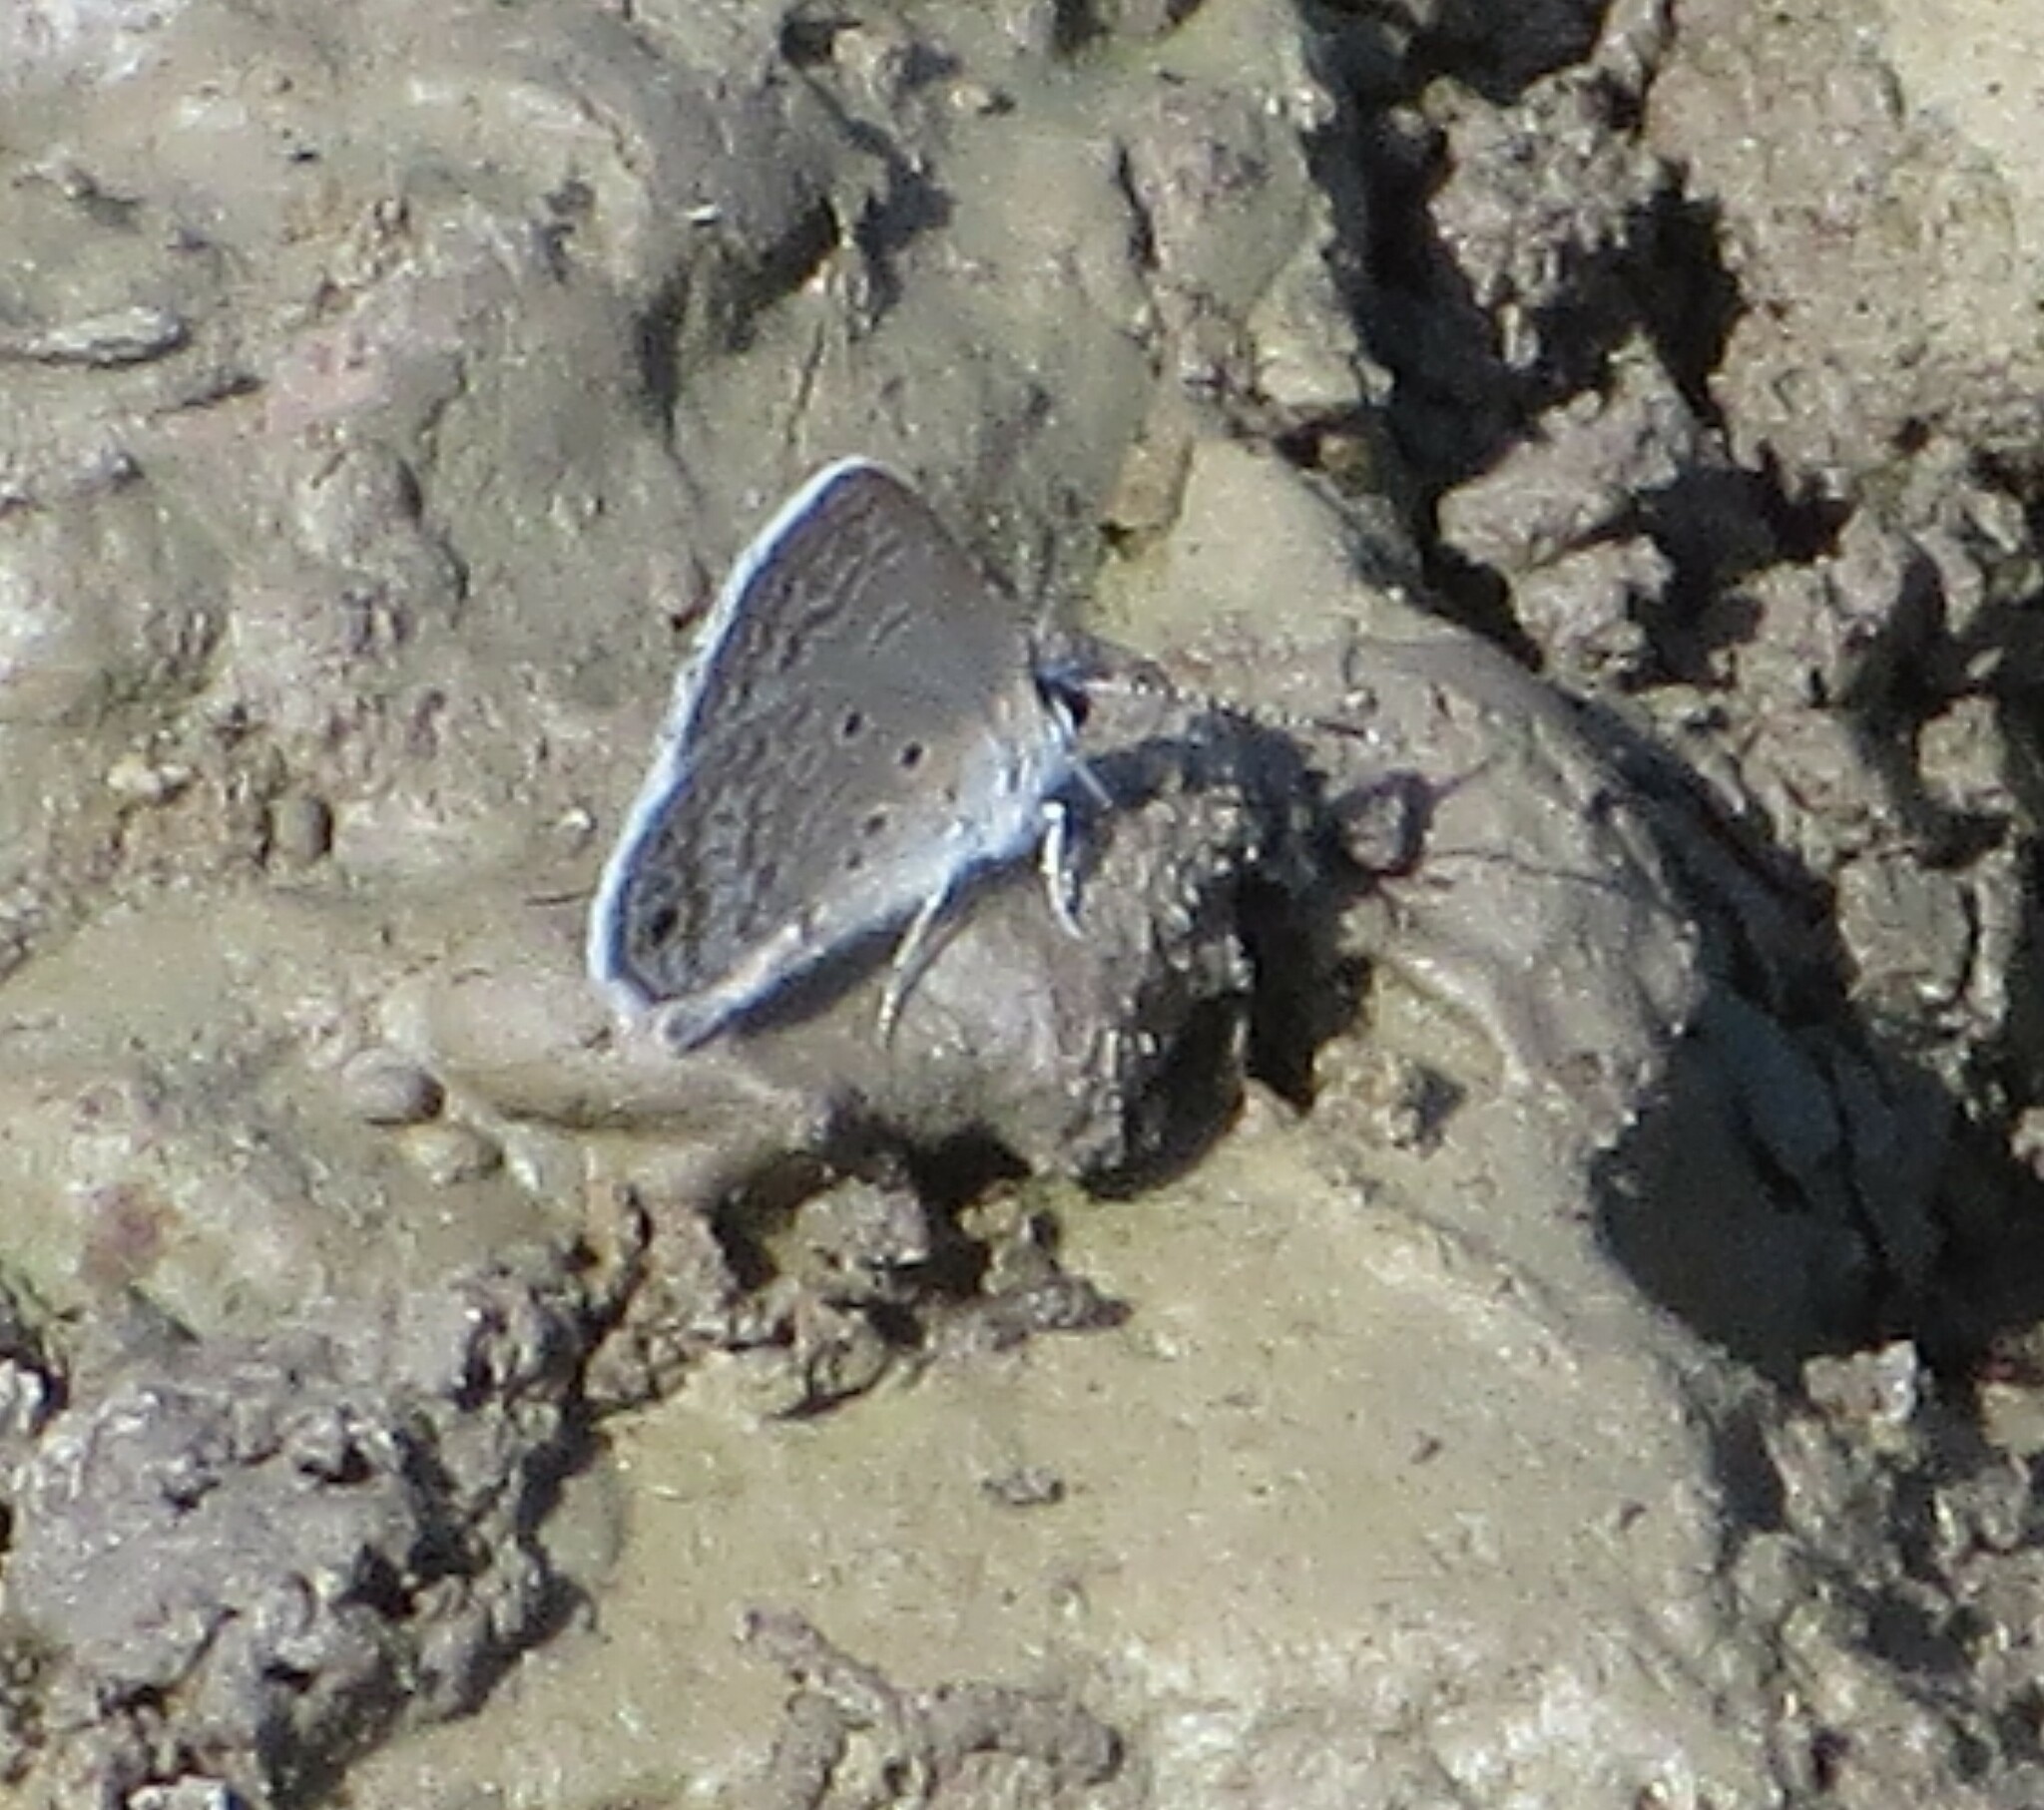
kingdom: Animalia
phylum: Arthropoda
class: Insecta
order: Lepidoptera
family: Lycaenidae
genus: Hemiargus
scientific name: Hemiargus ceraunus
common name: Ceraunus blue
